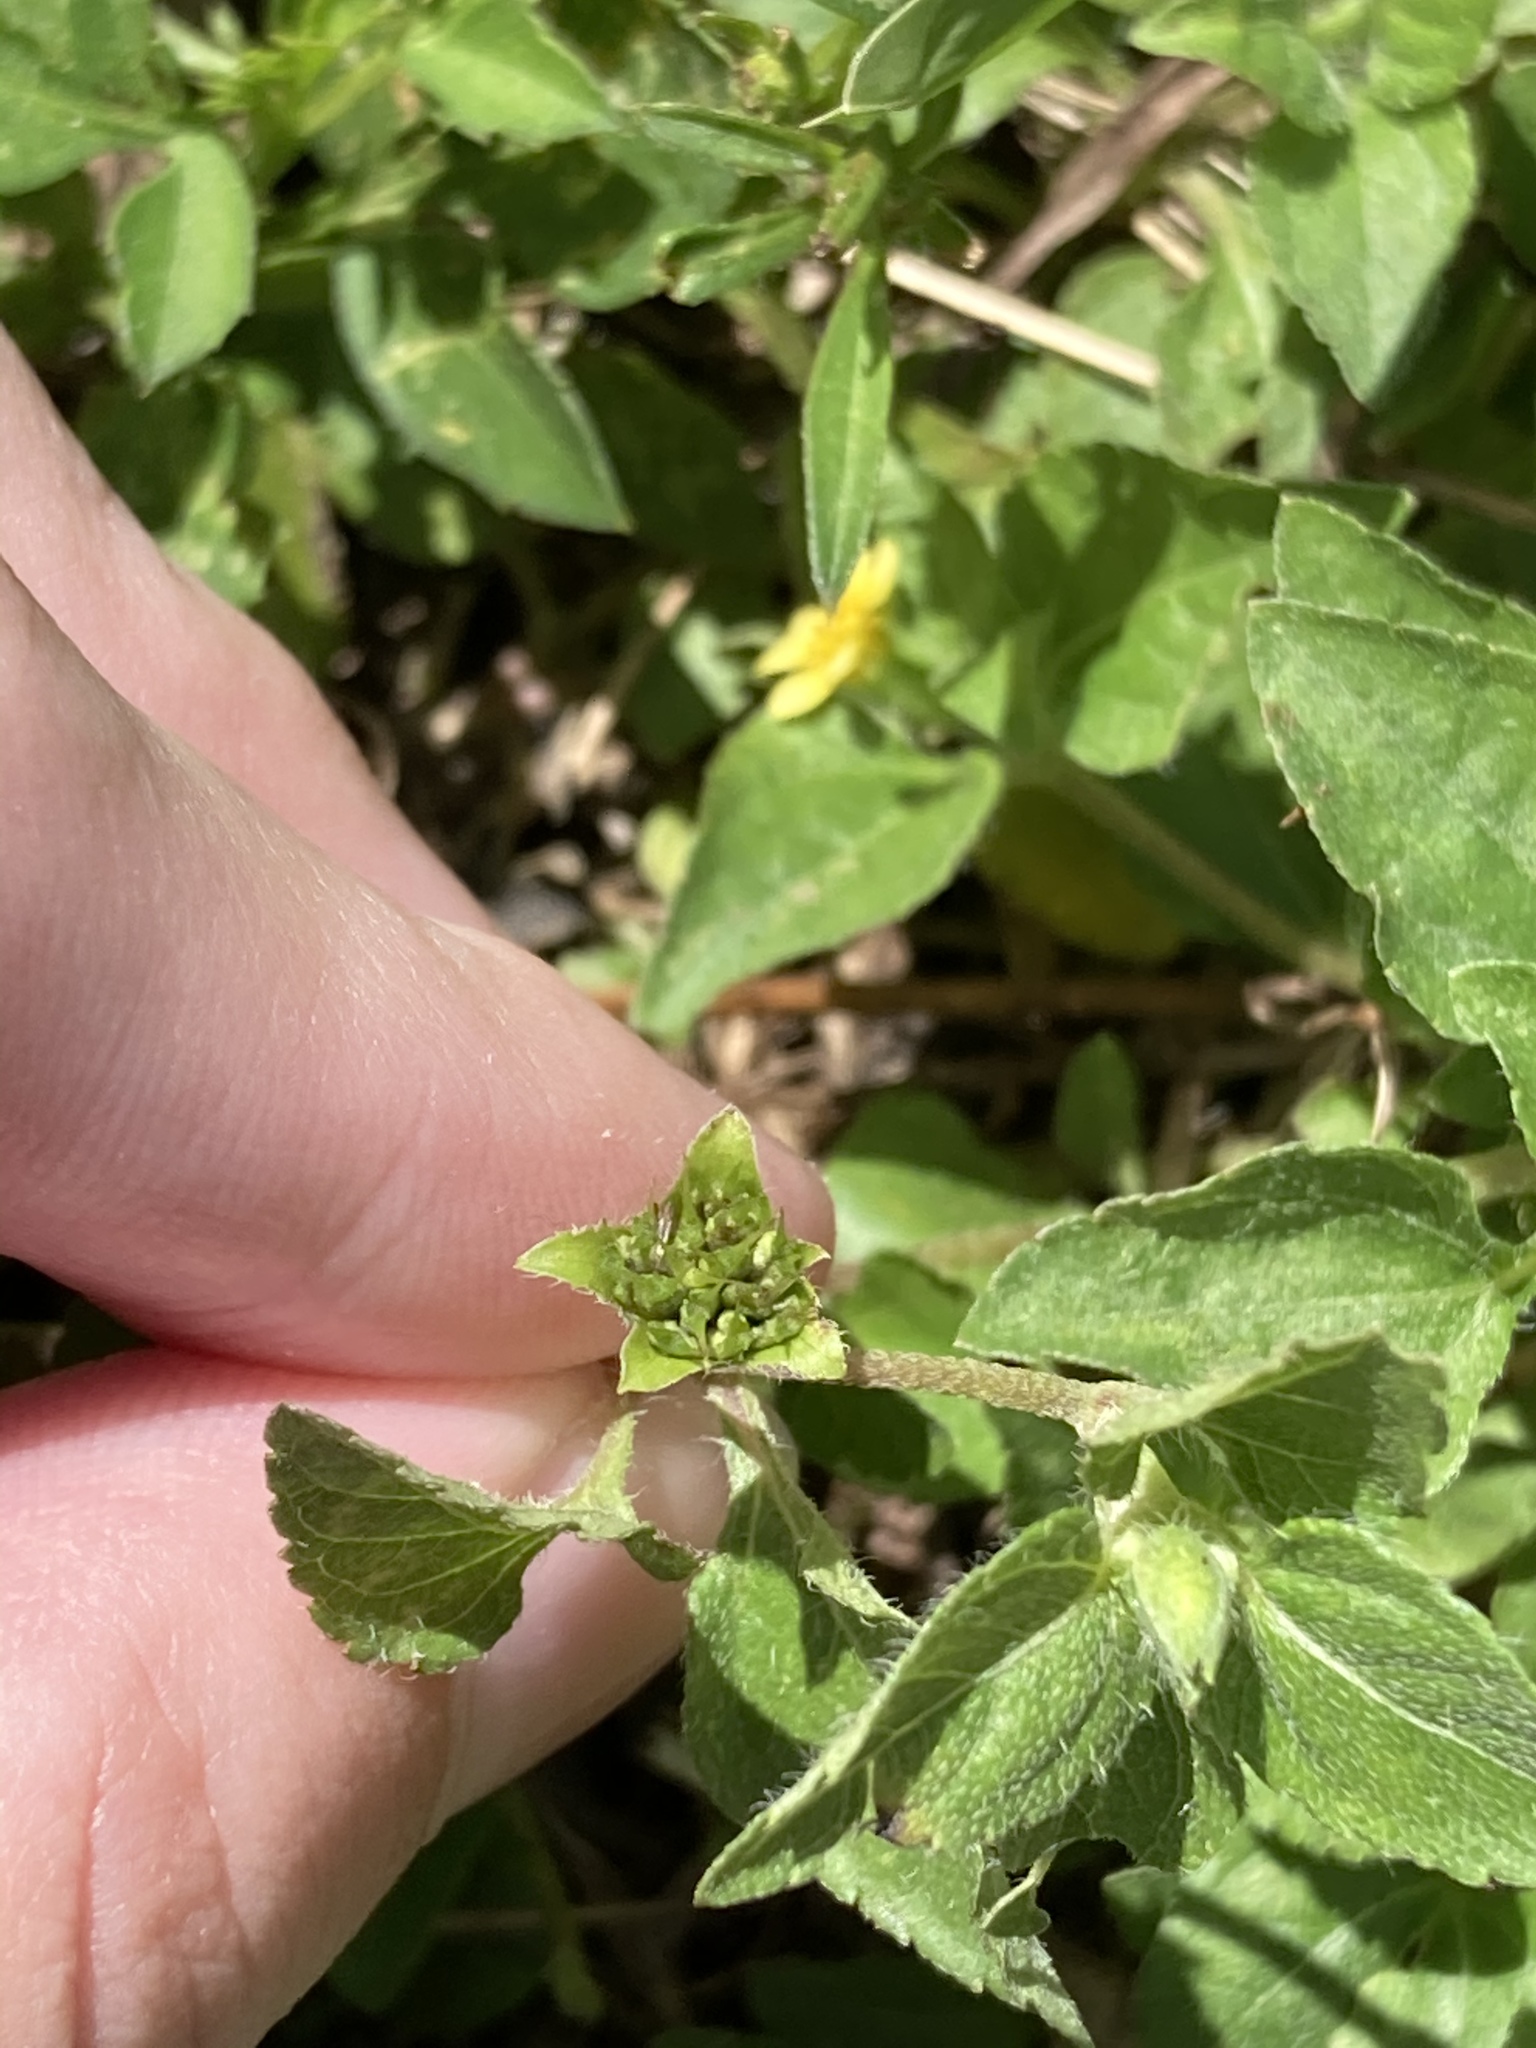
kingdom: Plantae
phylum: Tracheophyta
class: Magnoliopsida
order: Asterales
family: Asteraceae
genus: Calyptocarpus
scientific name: Calyptocarpus vialis
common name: Straggler daisy
